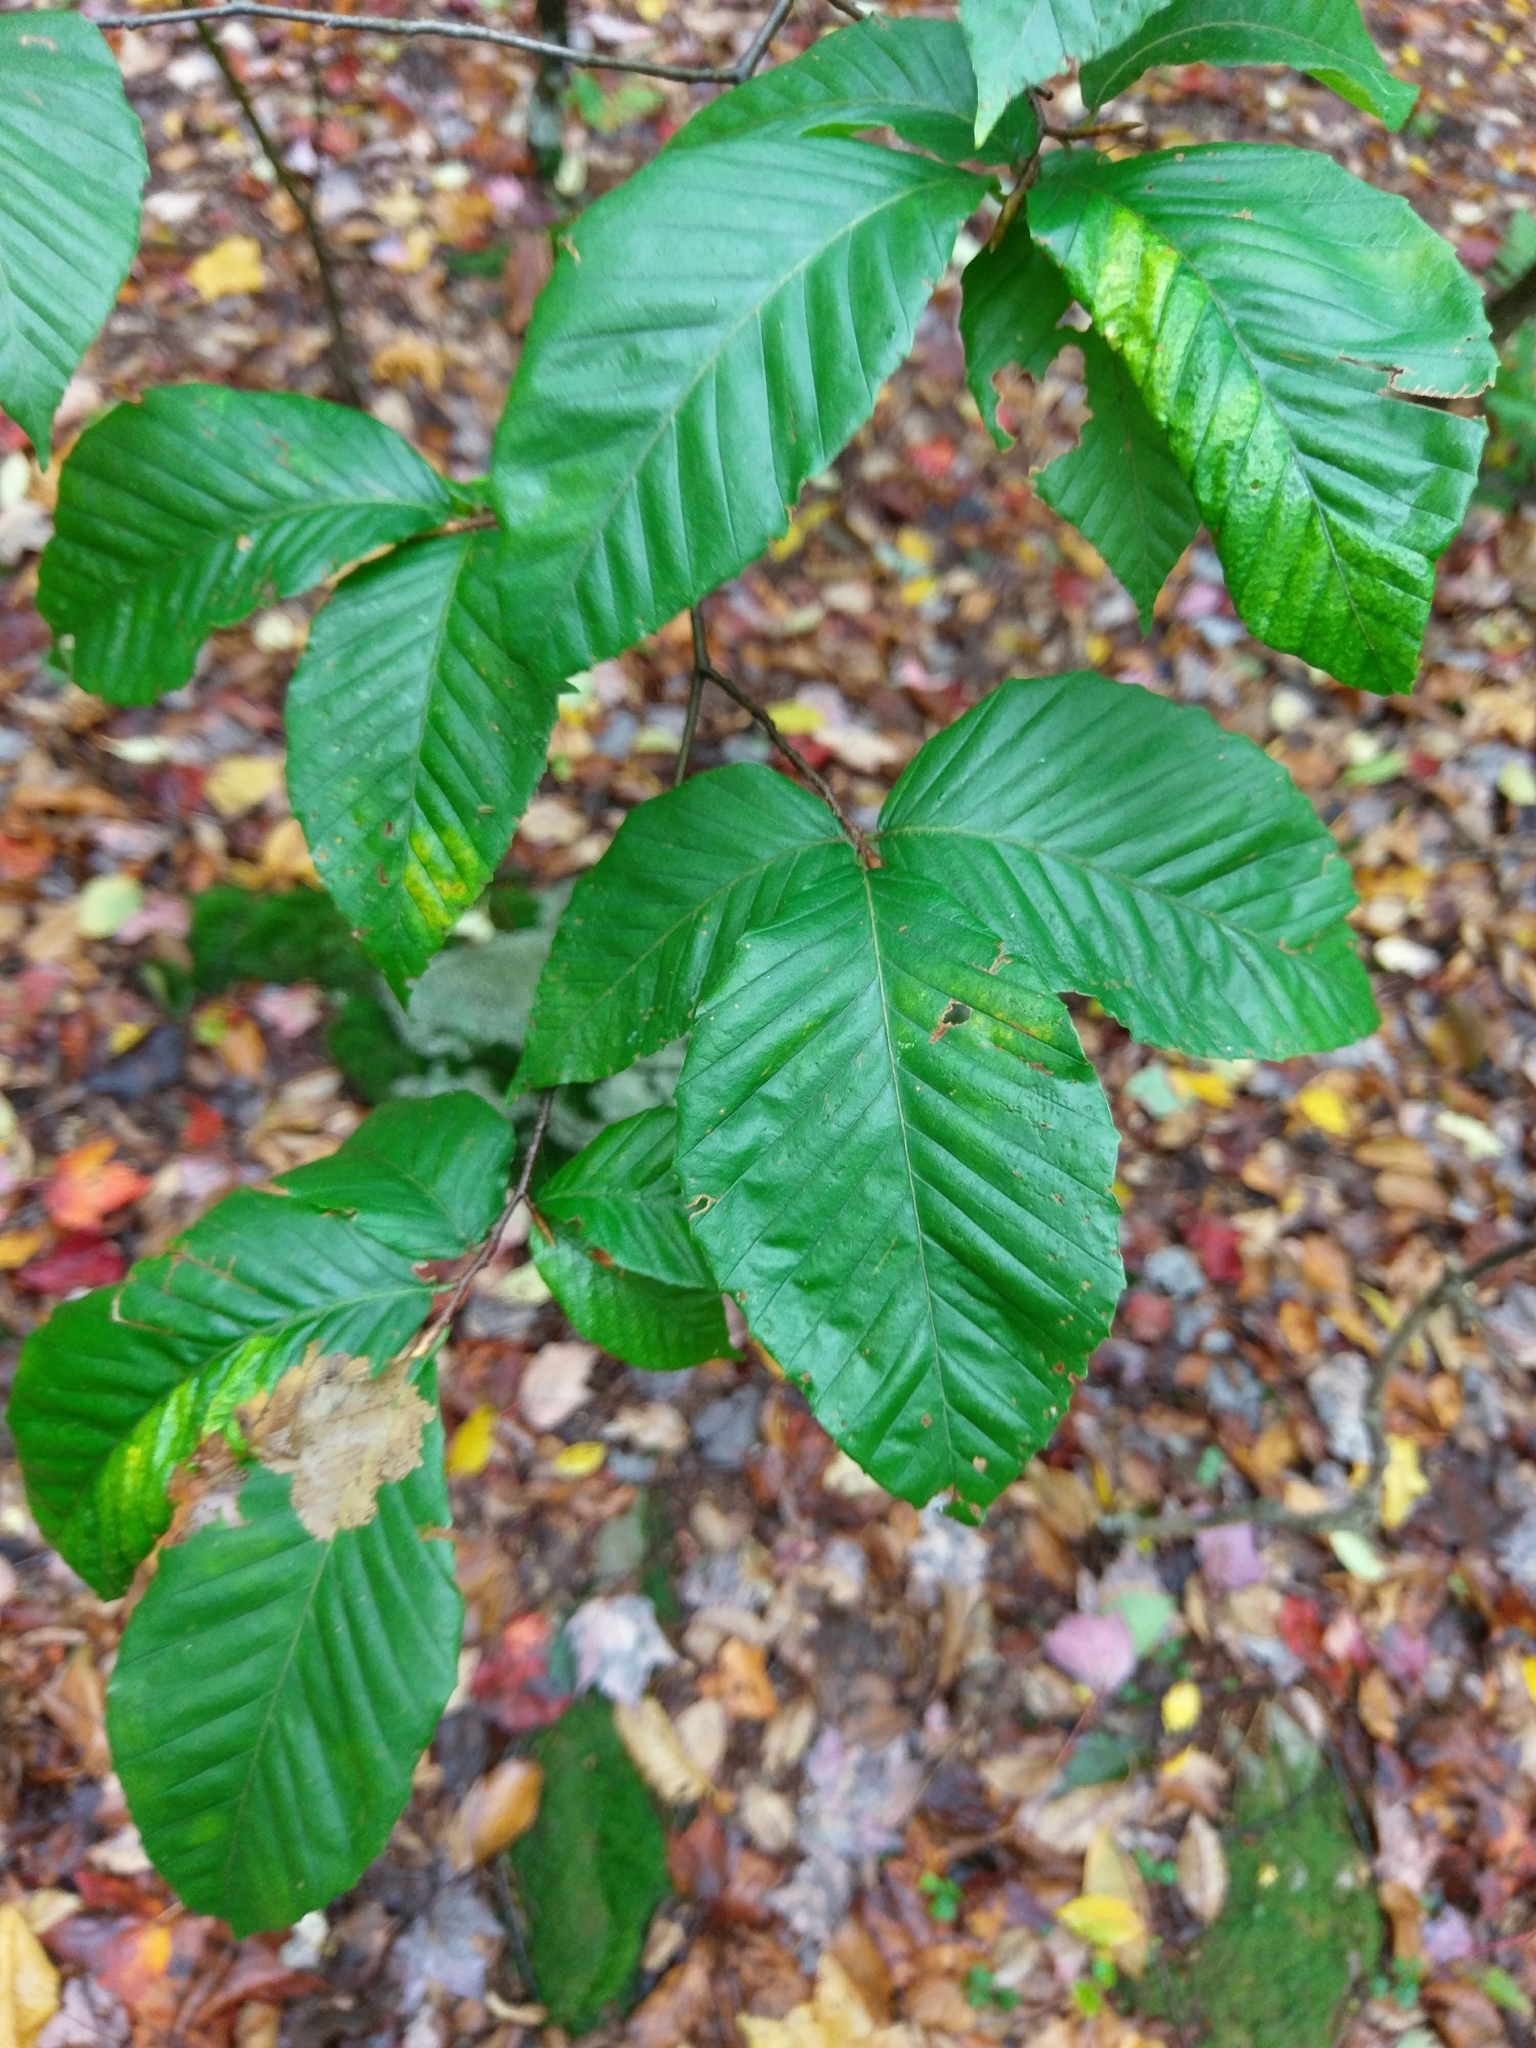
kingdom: Plantae
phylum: Tracheophyta
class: Magnoliopsida
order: Fagales
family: Fagaceae
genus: Fagus
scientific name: Fagus grandifolia
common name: American beech
